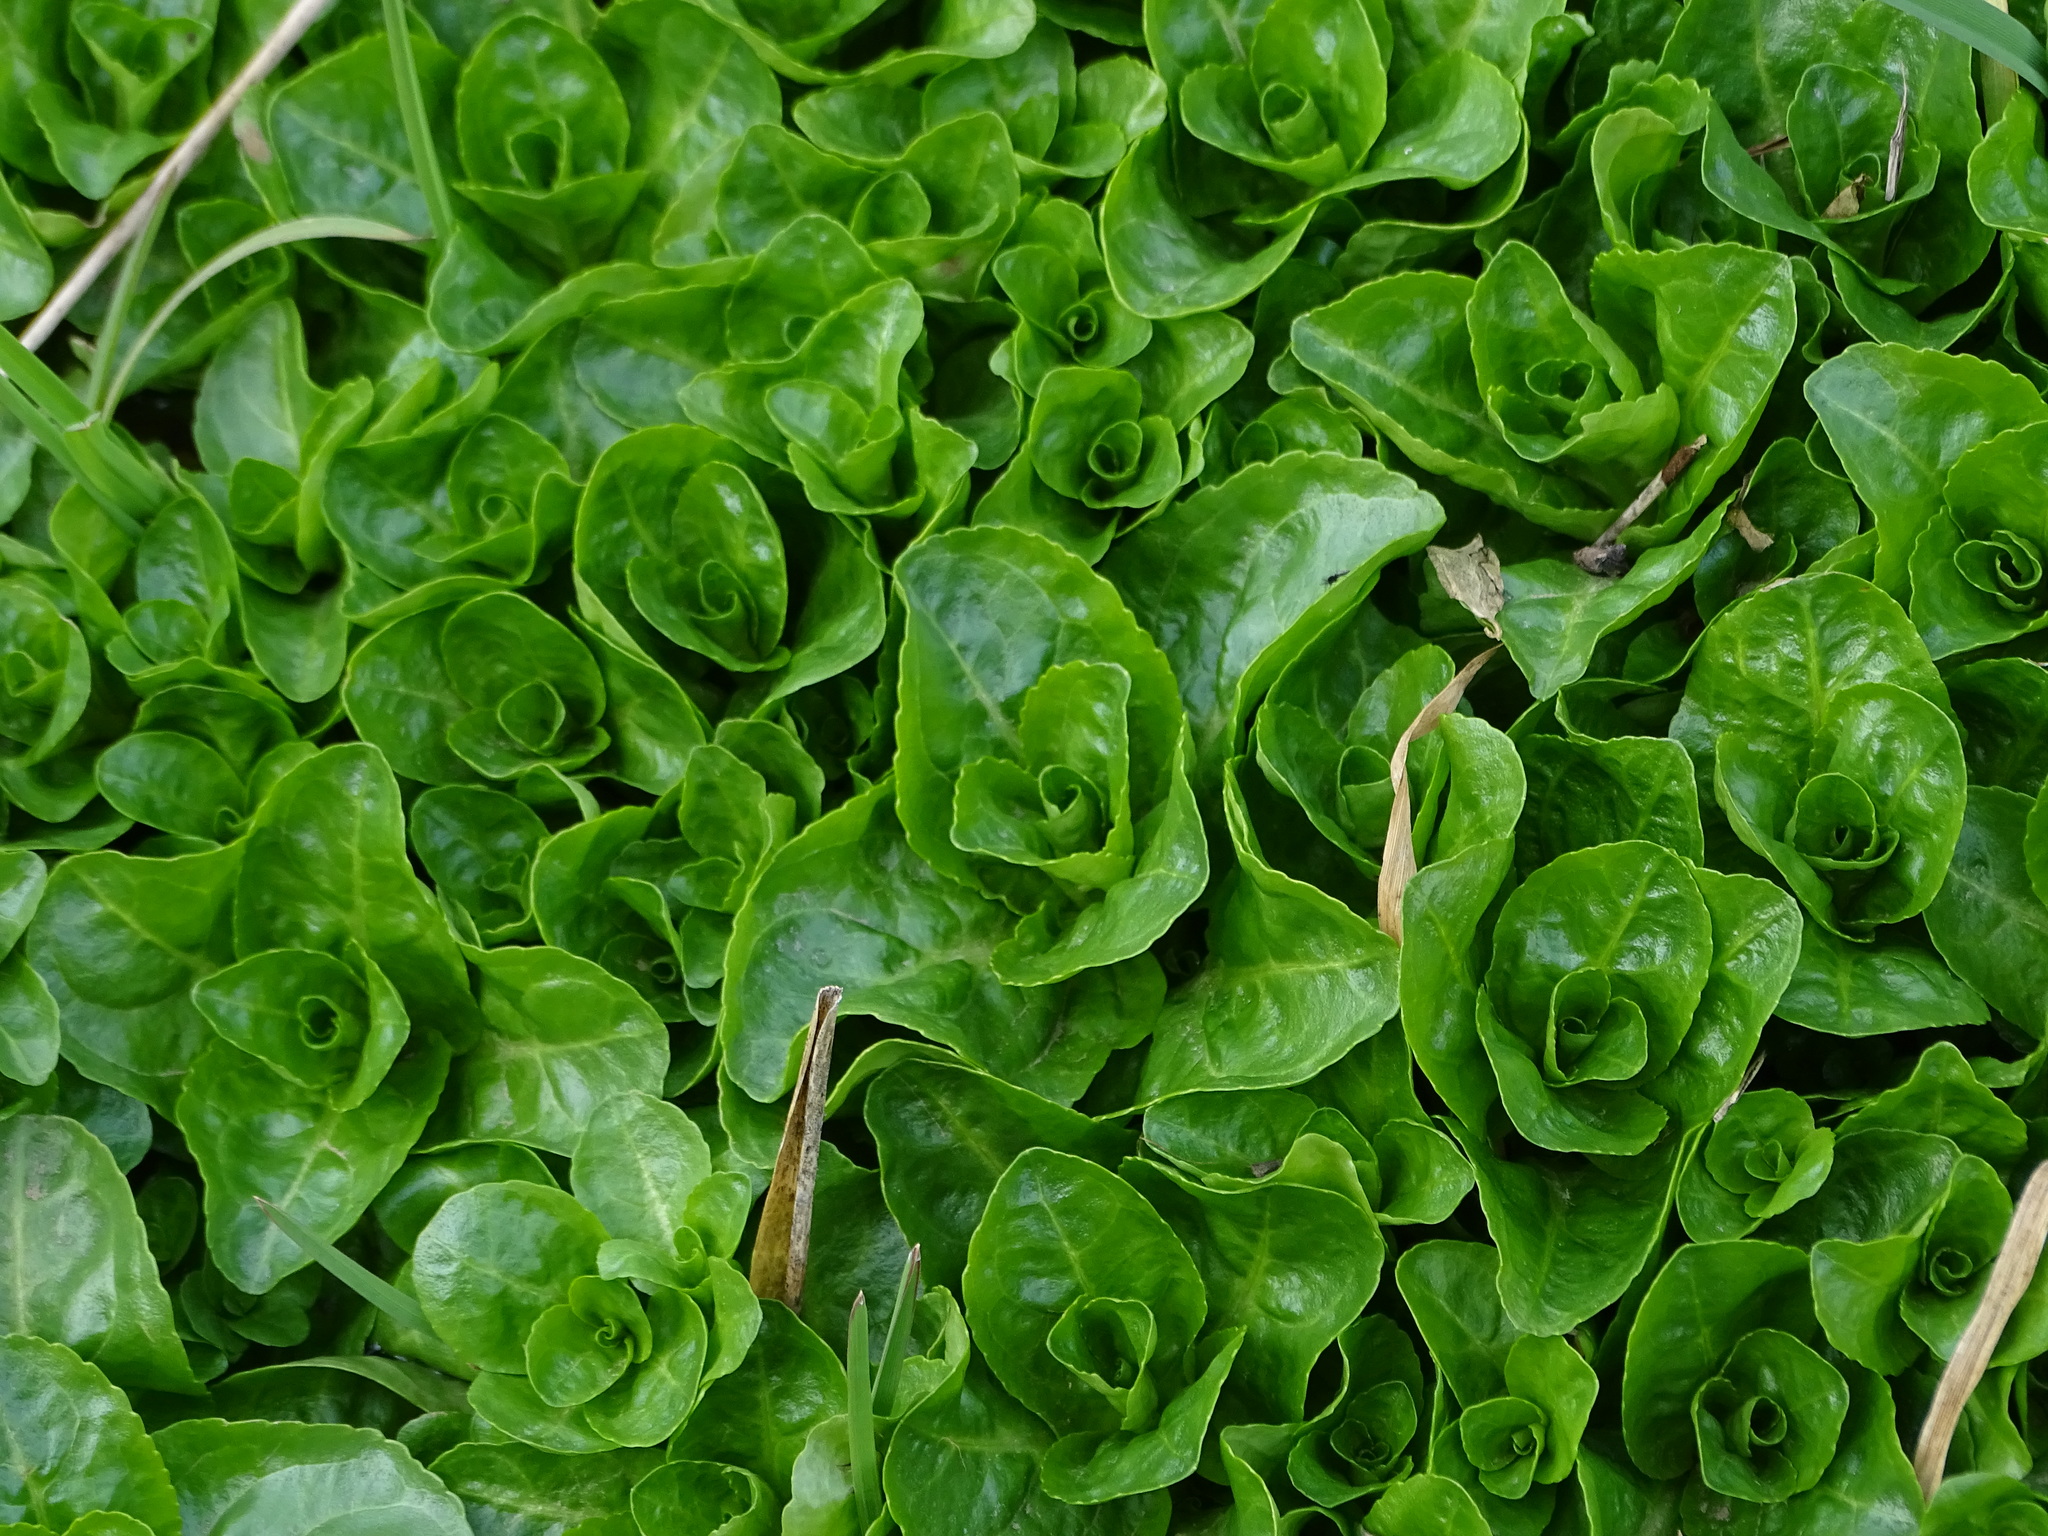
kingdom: Plantae
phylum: Tracheophyta
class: Magnoliopsida
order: Lamiales
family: Plantaginaceae
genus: Veronica
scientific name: Veronica beccabunga
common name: Brooklime
